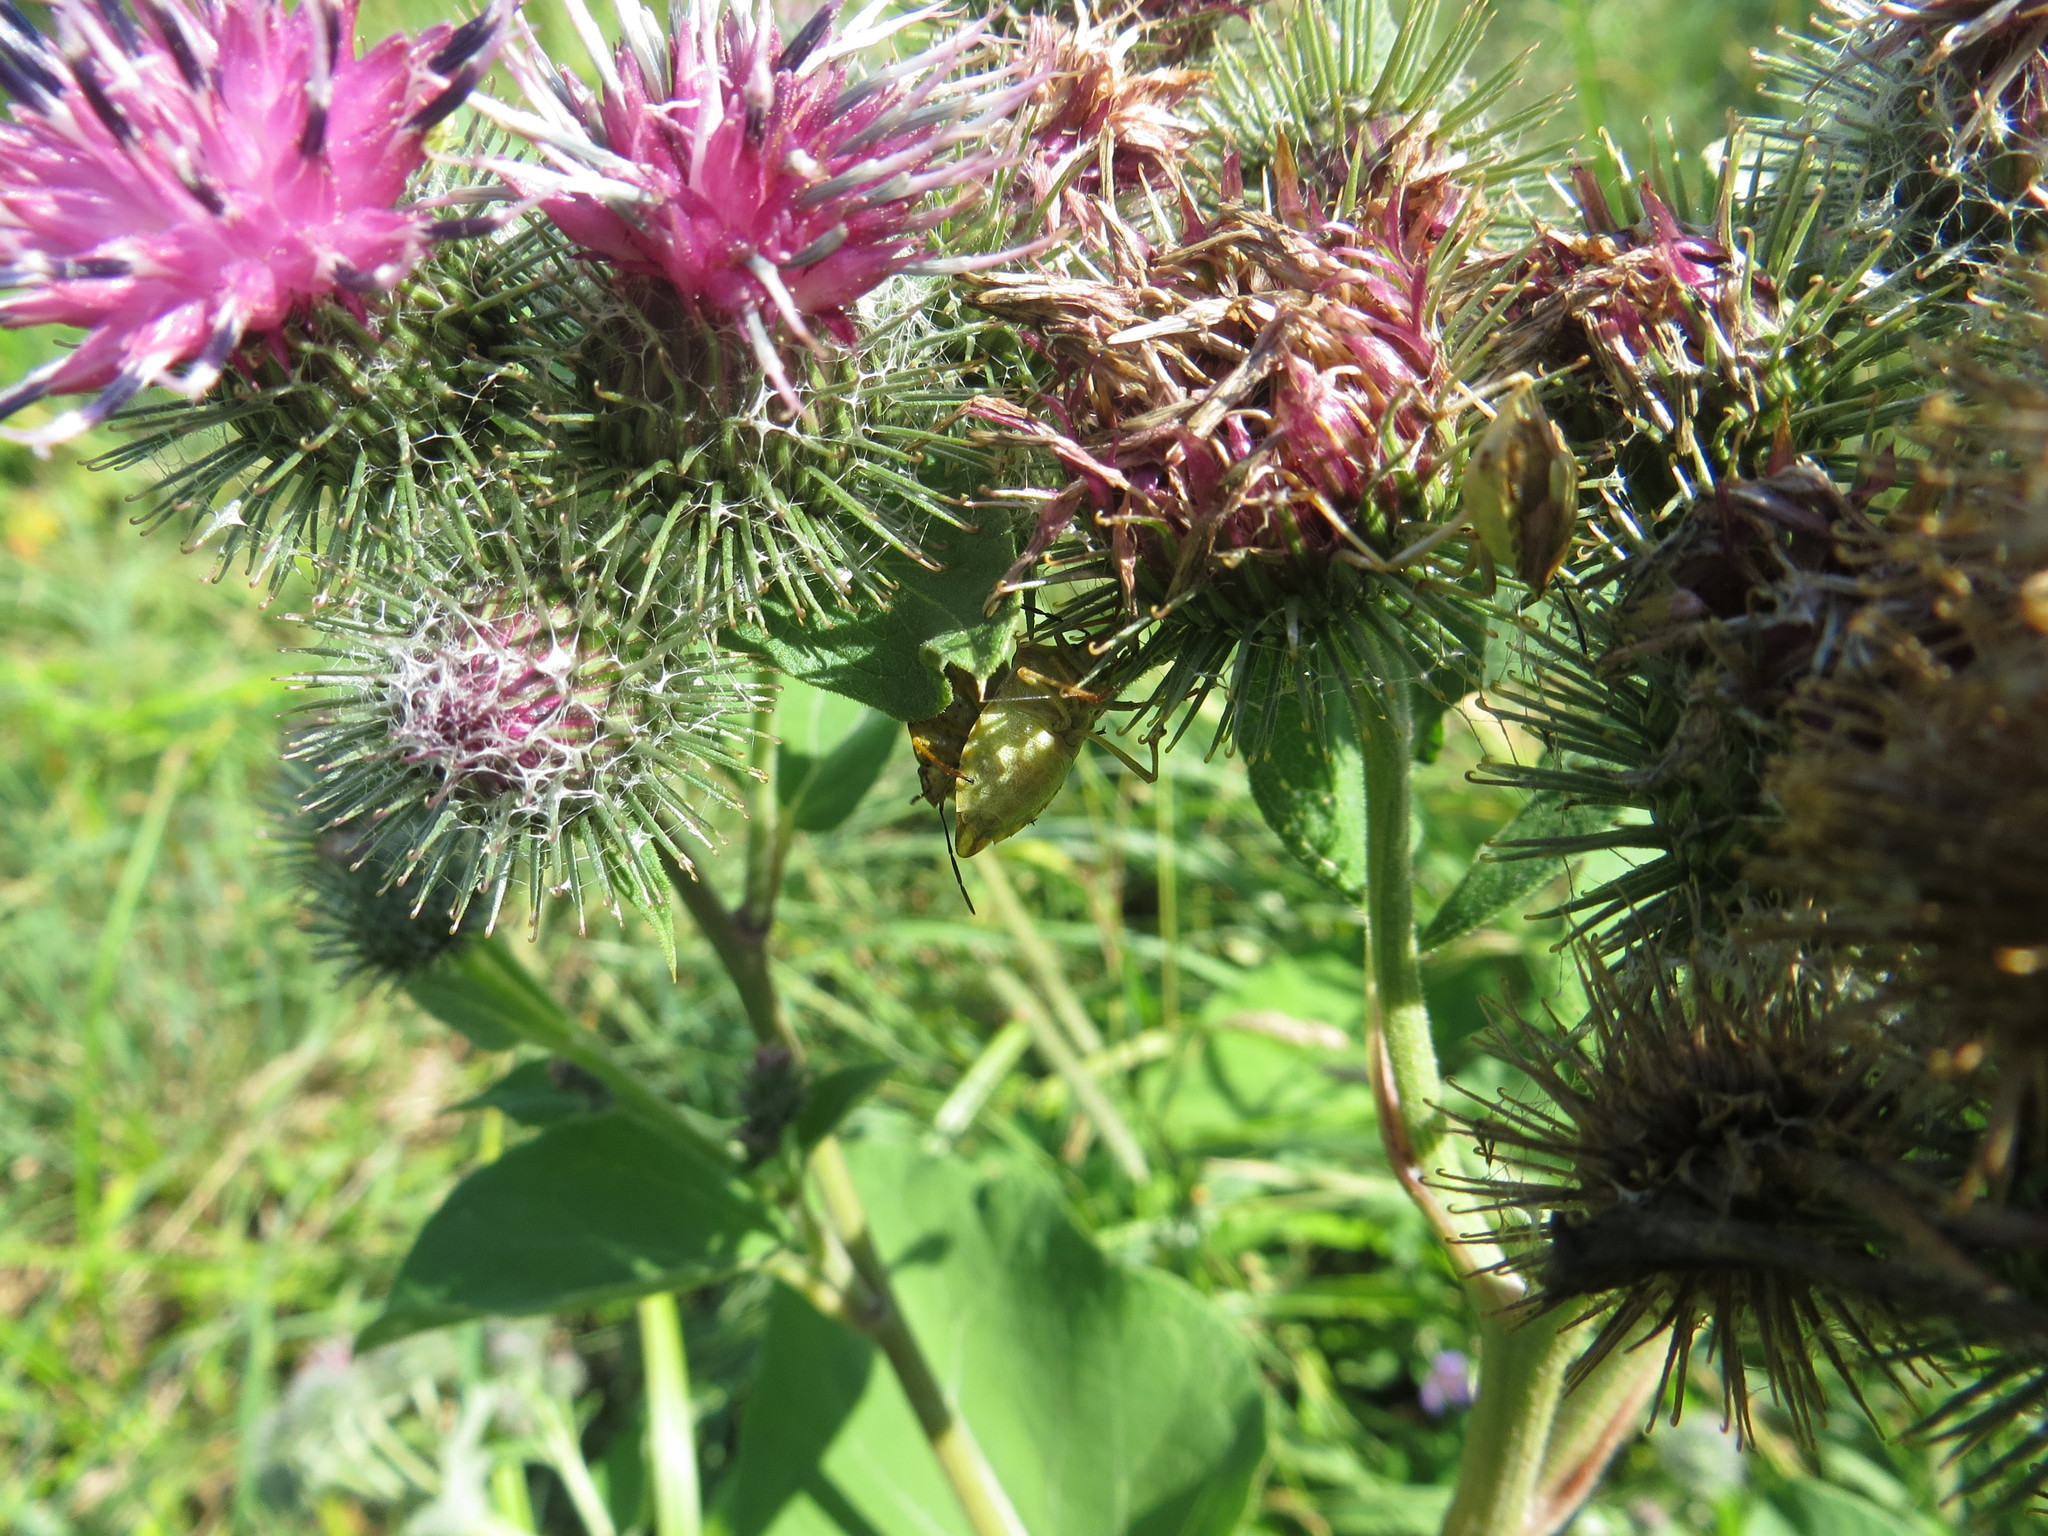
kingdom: Animalia
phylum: Arthropoda
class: Insecta
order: Hemiptera
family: Pentatomidae
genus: Carpocoris
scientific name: Carpocoris purpureipennis
